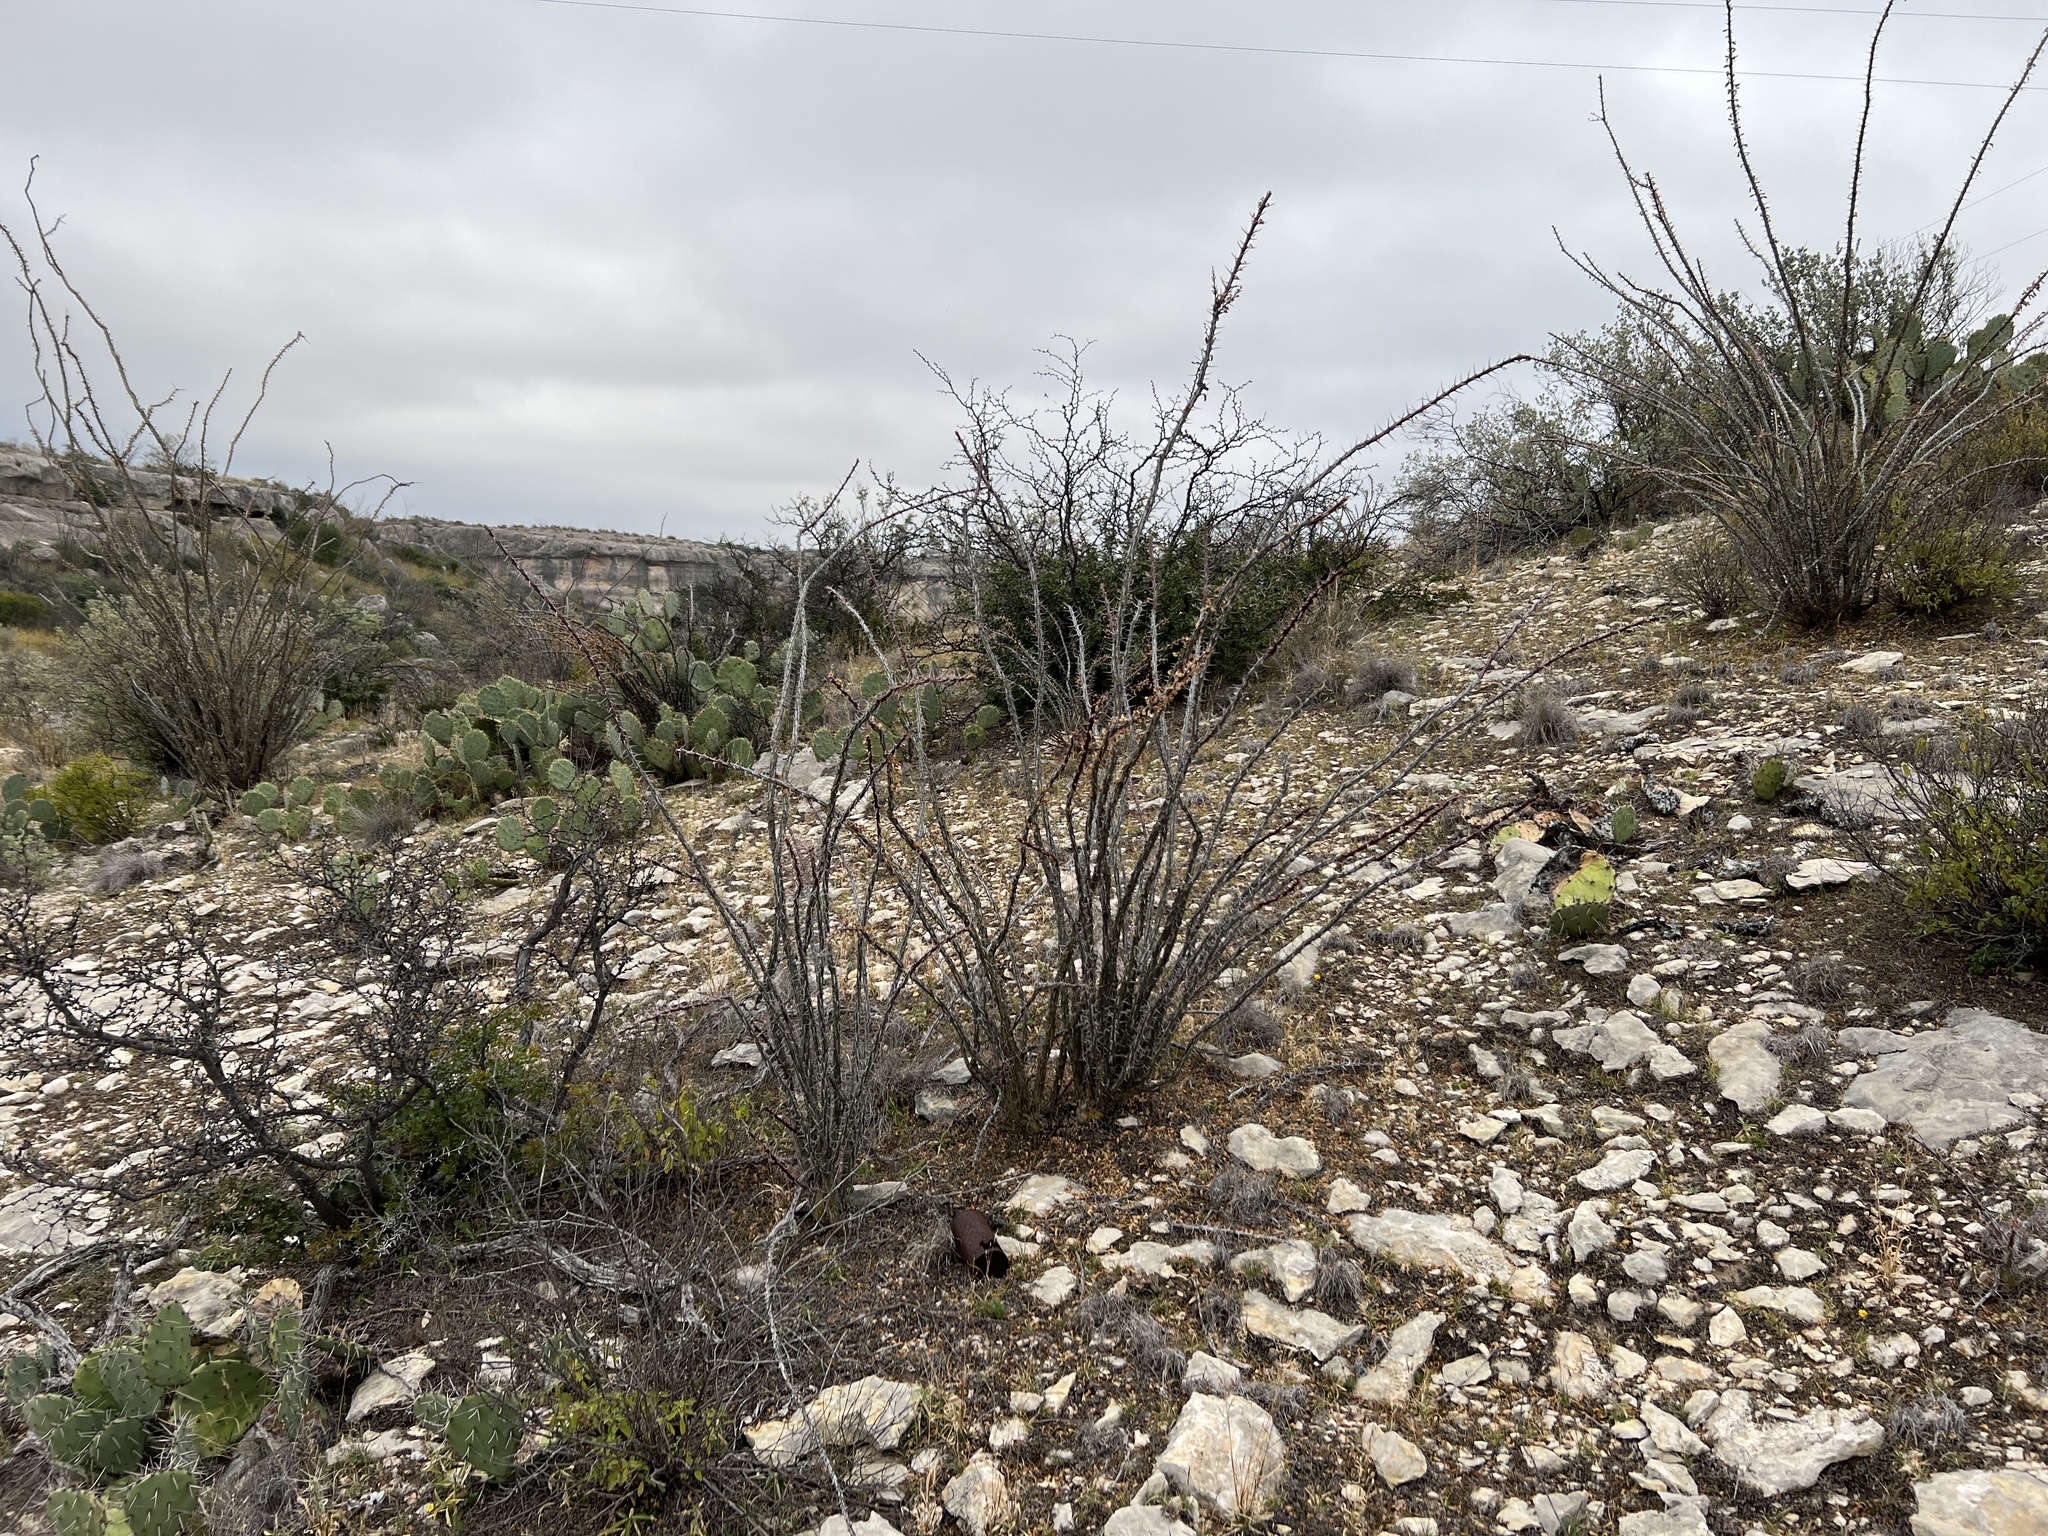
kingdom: Plantae
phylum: Tracheophyta
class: Magnoliopsida
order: Ericales
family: Fouquieriaceae
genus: Fouquieria
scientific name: Fouquieria splendens
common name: Vine-cactus
